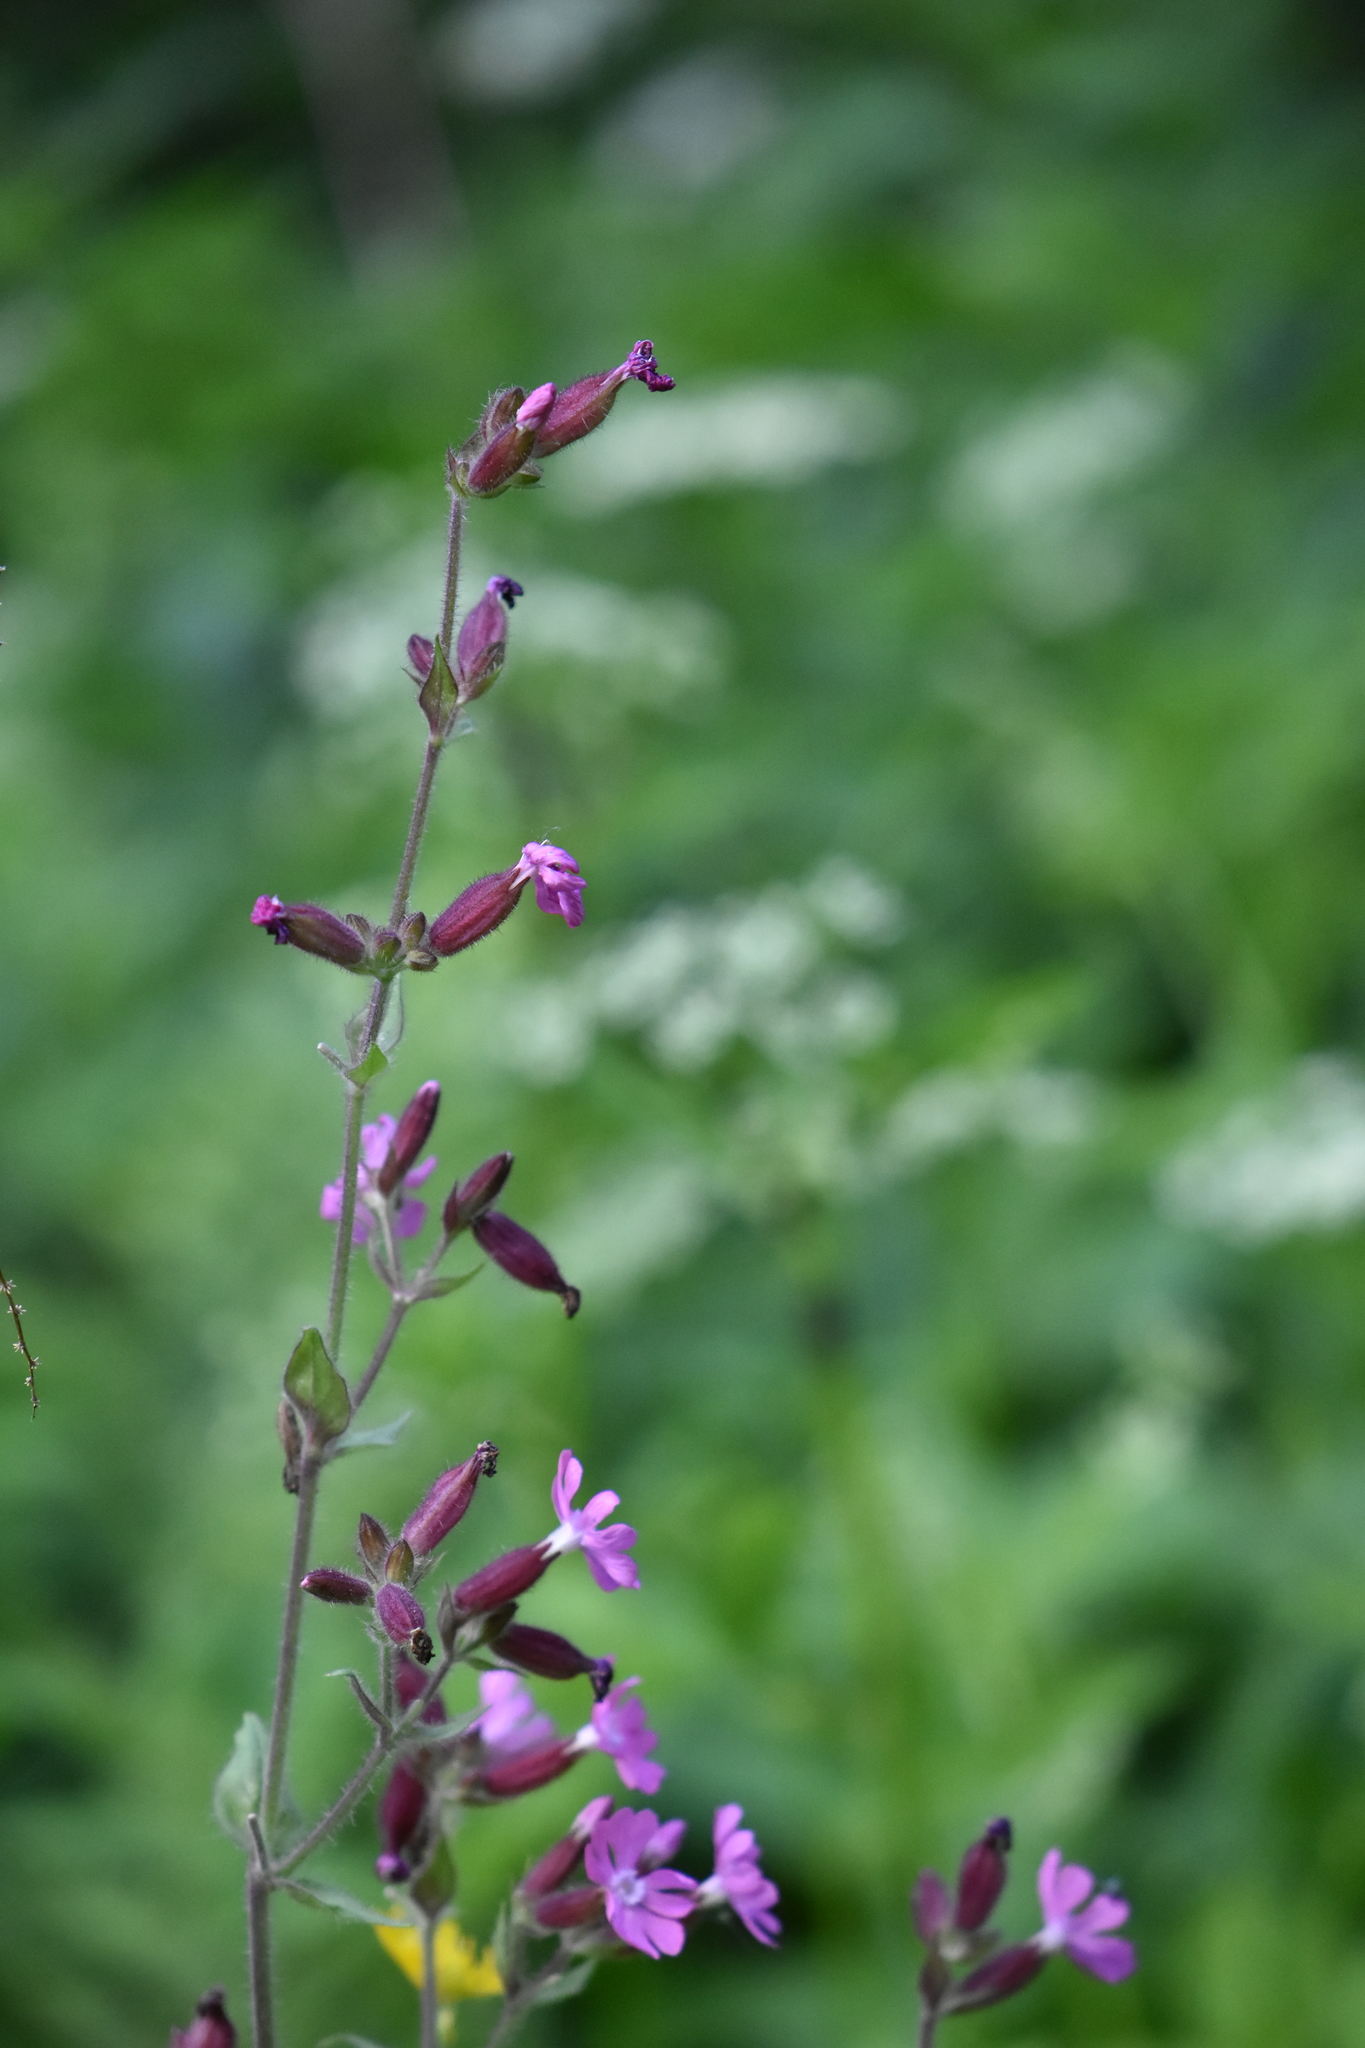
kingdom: Plantae
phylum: Tracheophyta
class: Magnoliopsida
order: Caryophyllales
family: Caryophyllaceae
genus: Silene
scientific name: Silene dioica
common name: Red campion
